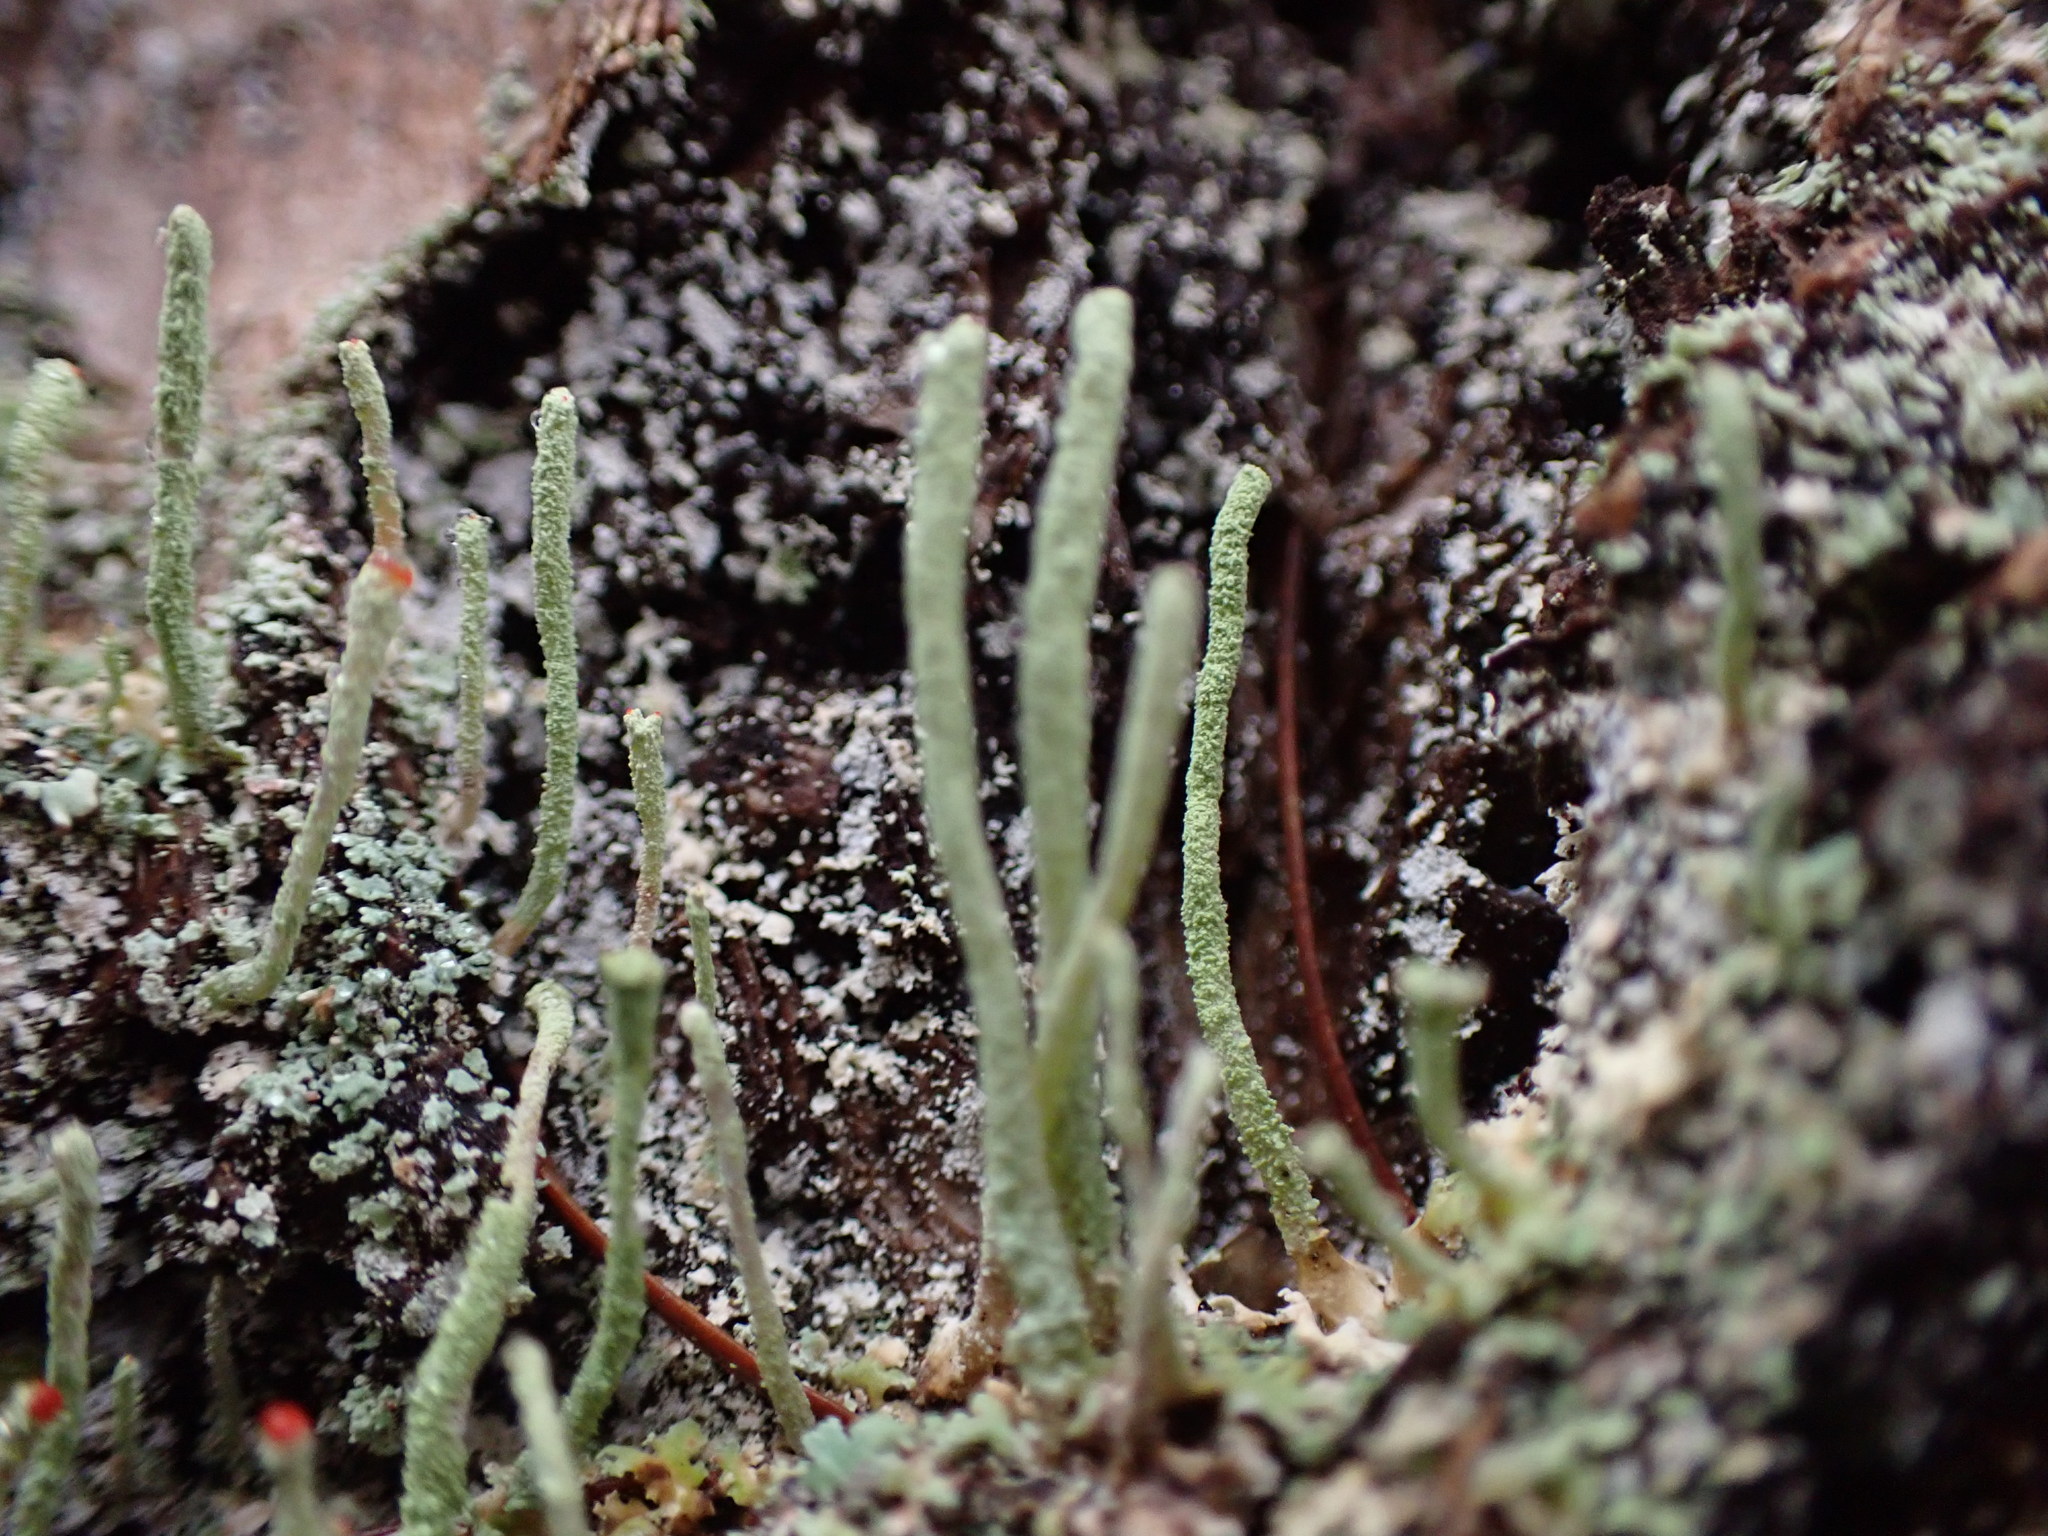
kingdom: Fungi
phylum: Ascomycota
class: Lecanoromycetes
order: Lecanorales
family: Cladoniaceae
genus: Cladonia
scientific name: Cladonia transcendens
